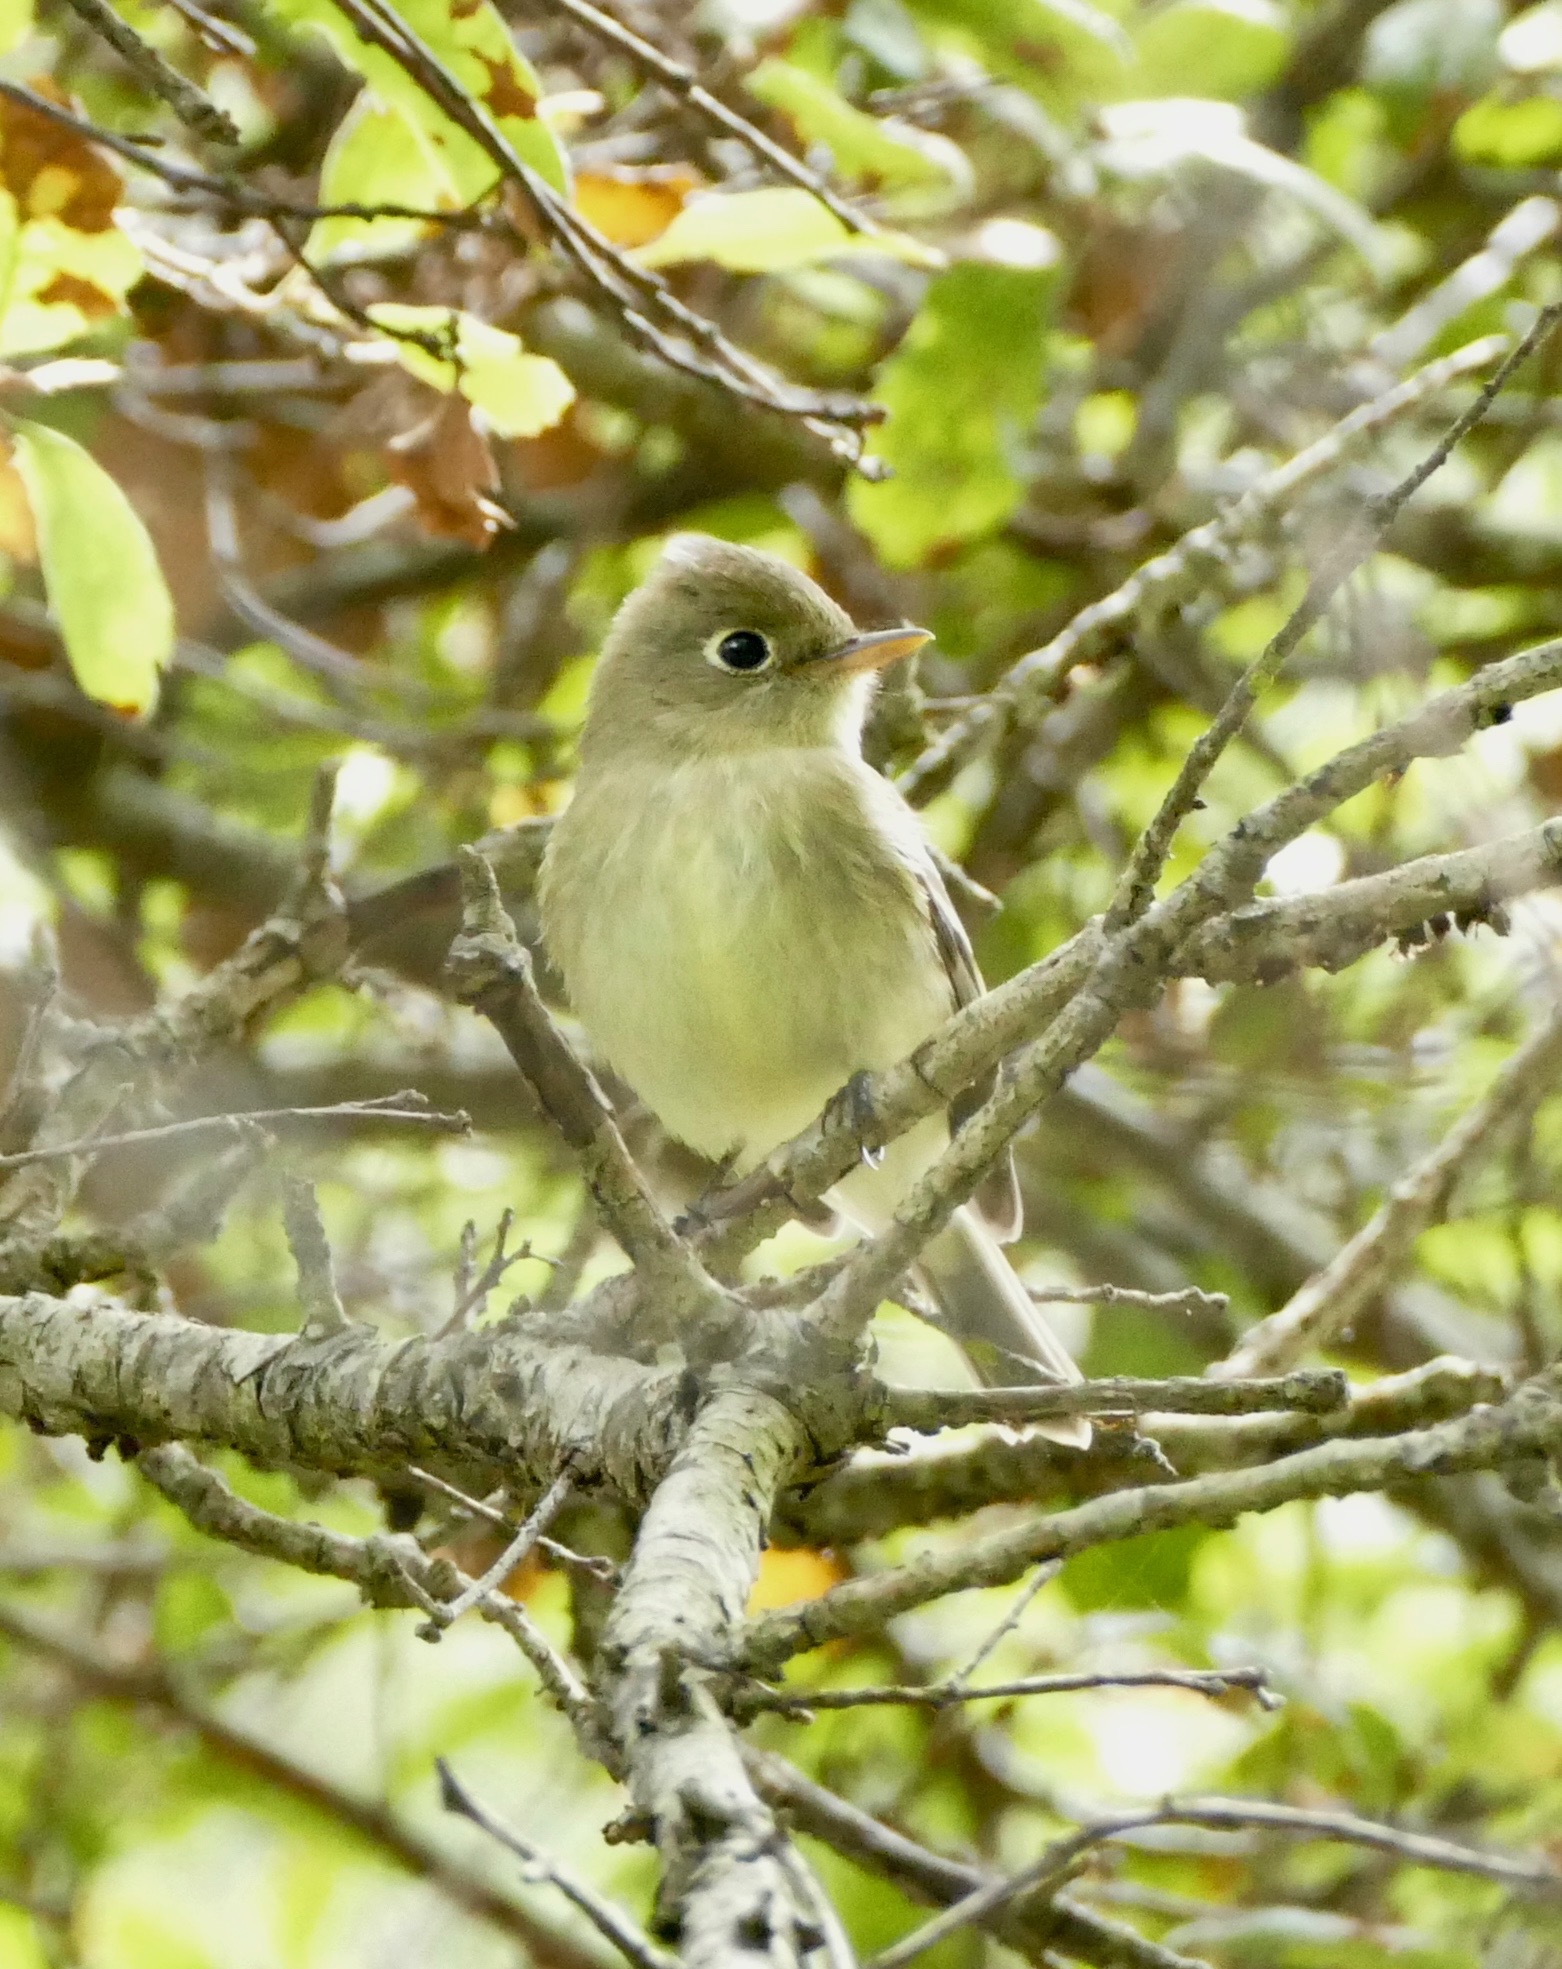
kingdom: Animalia
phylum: Chordata
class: Aves
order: Passeriformes
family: Tyrannidae
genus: Empidonax
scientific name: Empidonax difficilis
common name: Pacific-slope flycatcher
